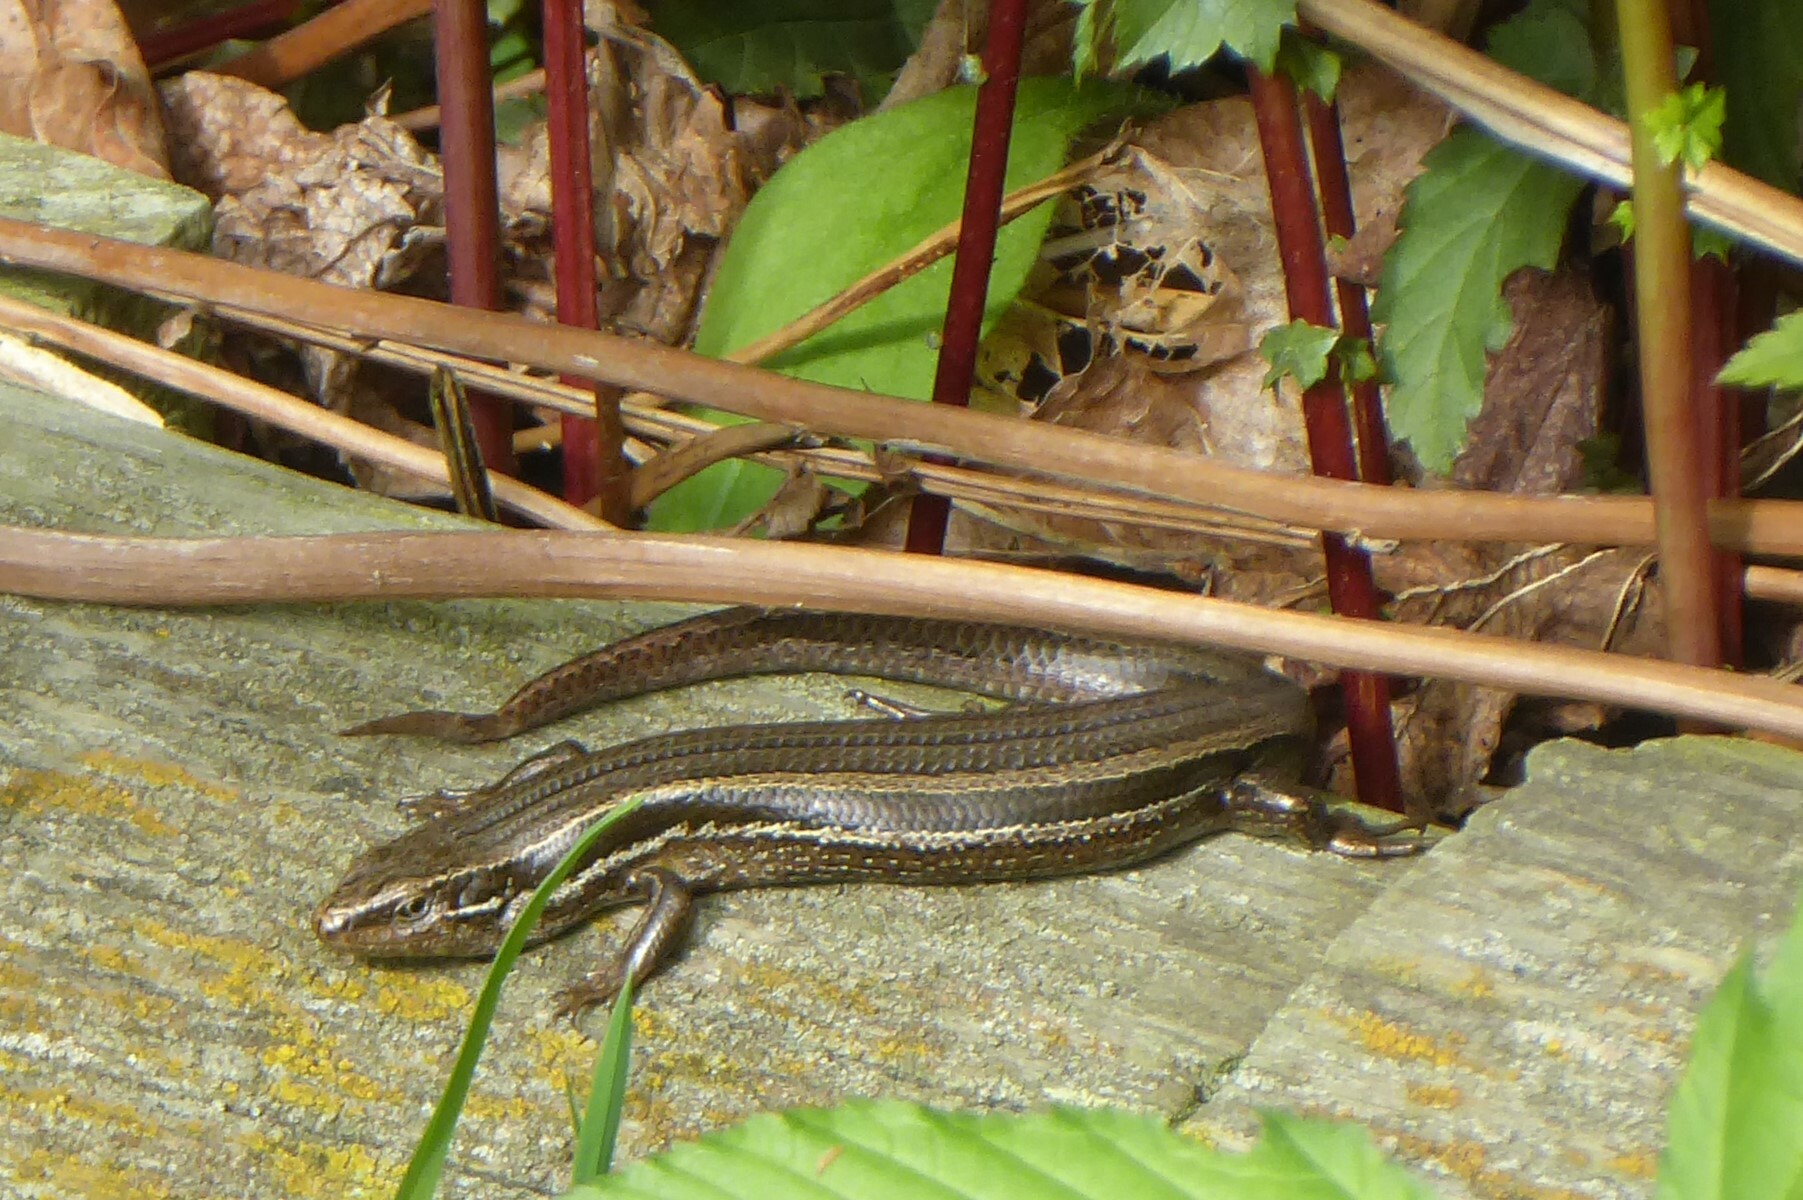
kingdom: Animalia
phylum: Chordata
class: Squamata
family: Scincidae
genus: Oligosoma
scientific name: Oligosoma polychroma
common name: Common new zealand skink
